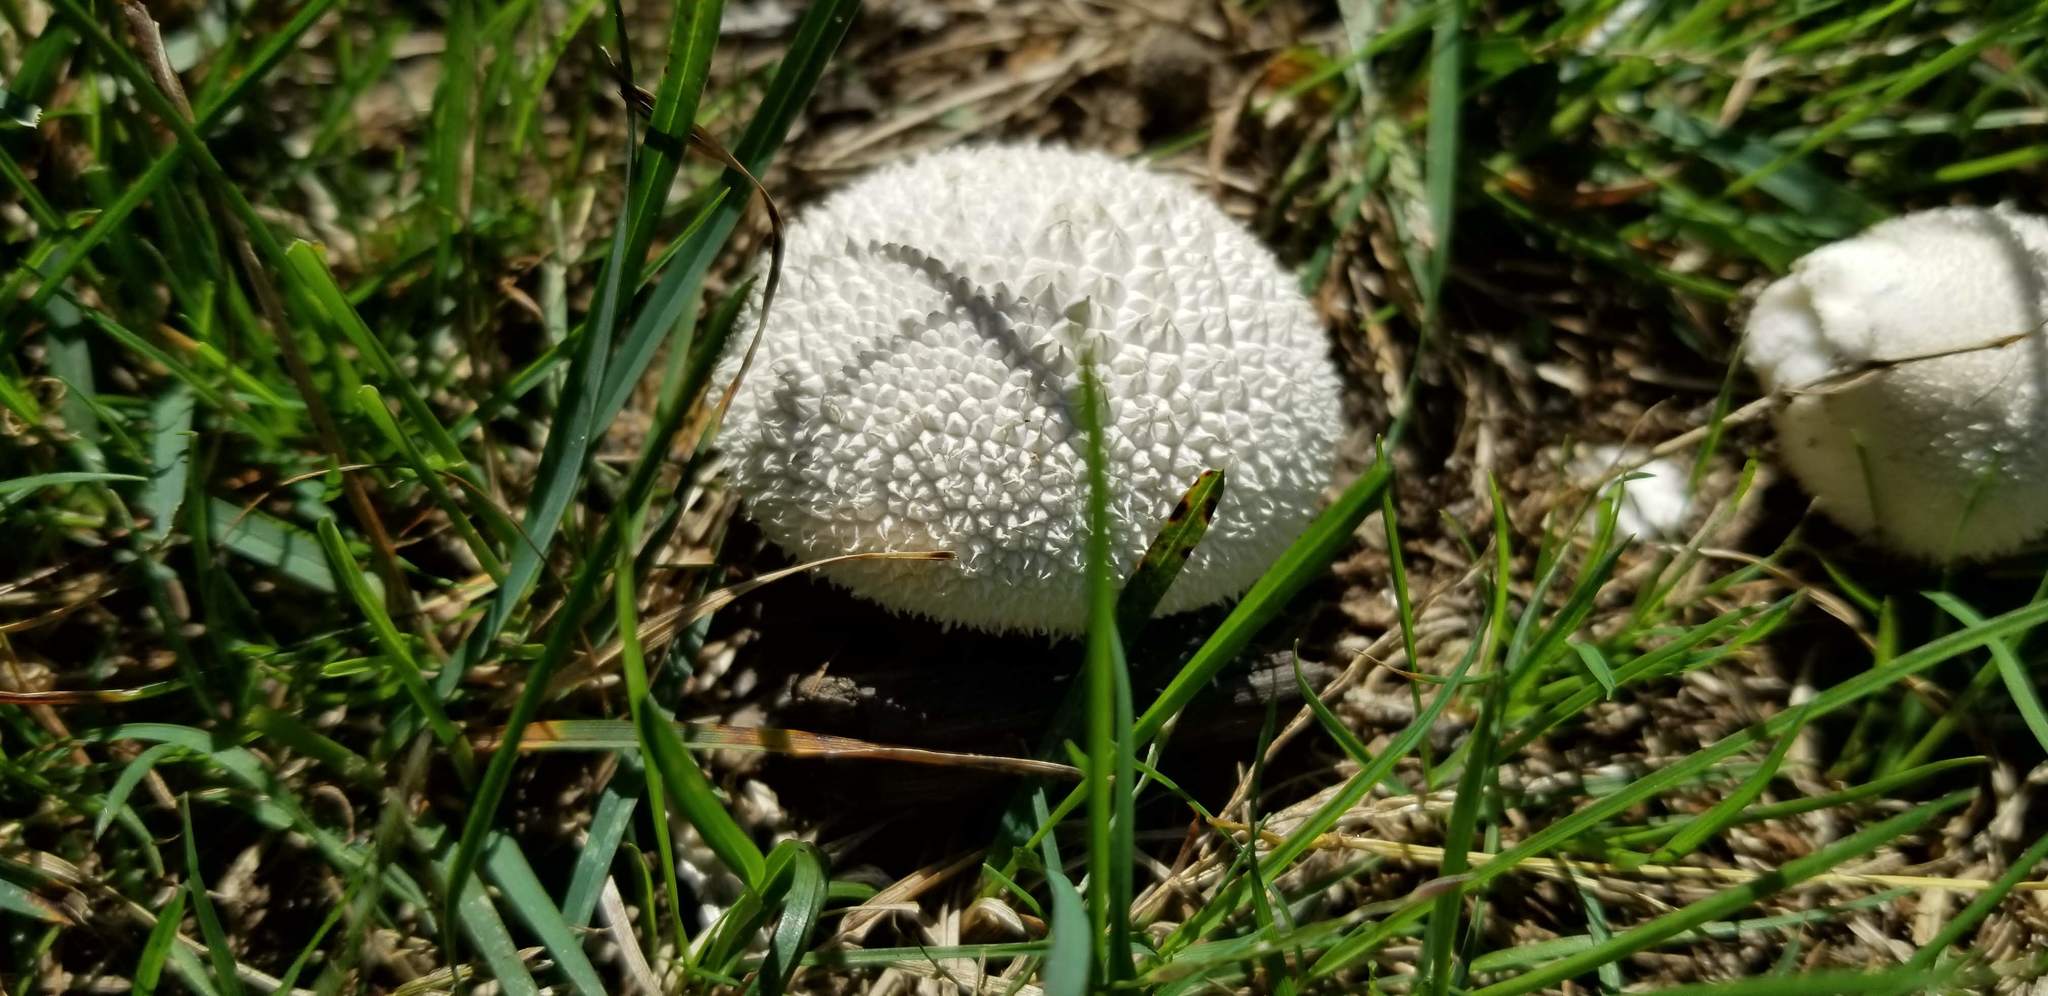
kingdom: Fungi
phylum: Basidiomycota
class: Agaricomycetes
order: Agaricales
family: Agaricaceae
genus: Lycoperdon
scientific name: Lycoperdon marginatum
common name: Peeling puffball
